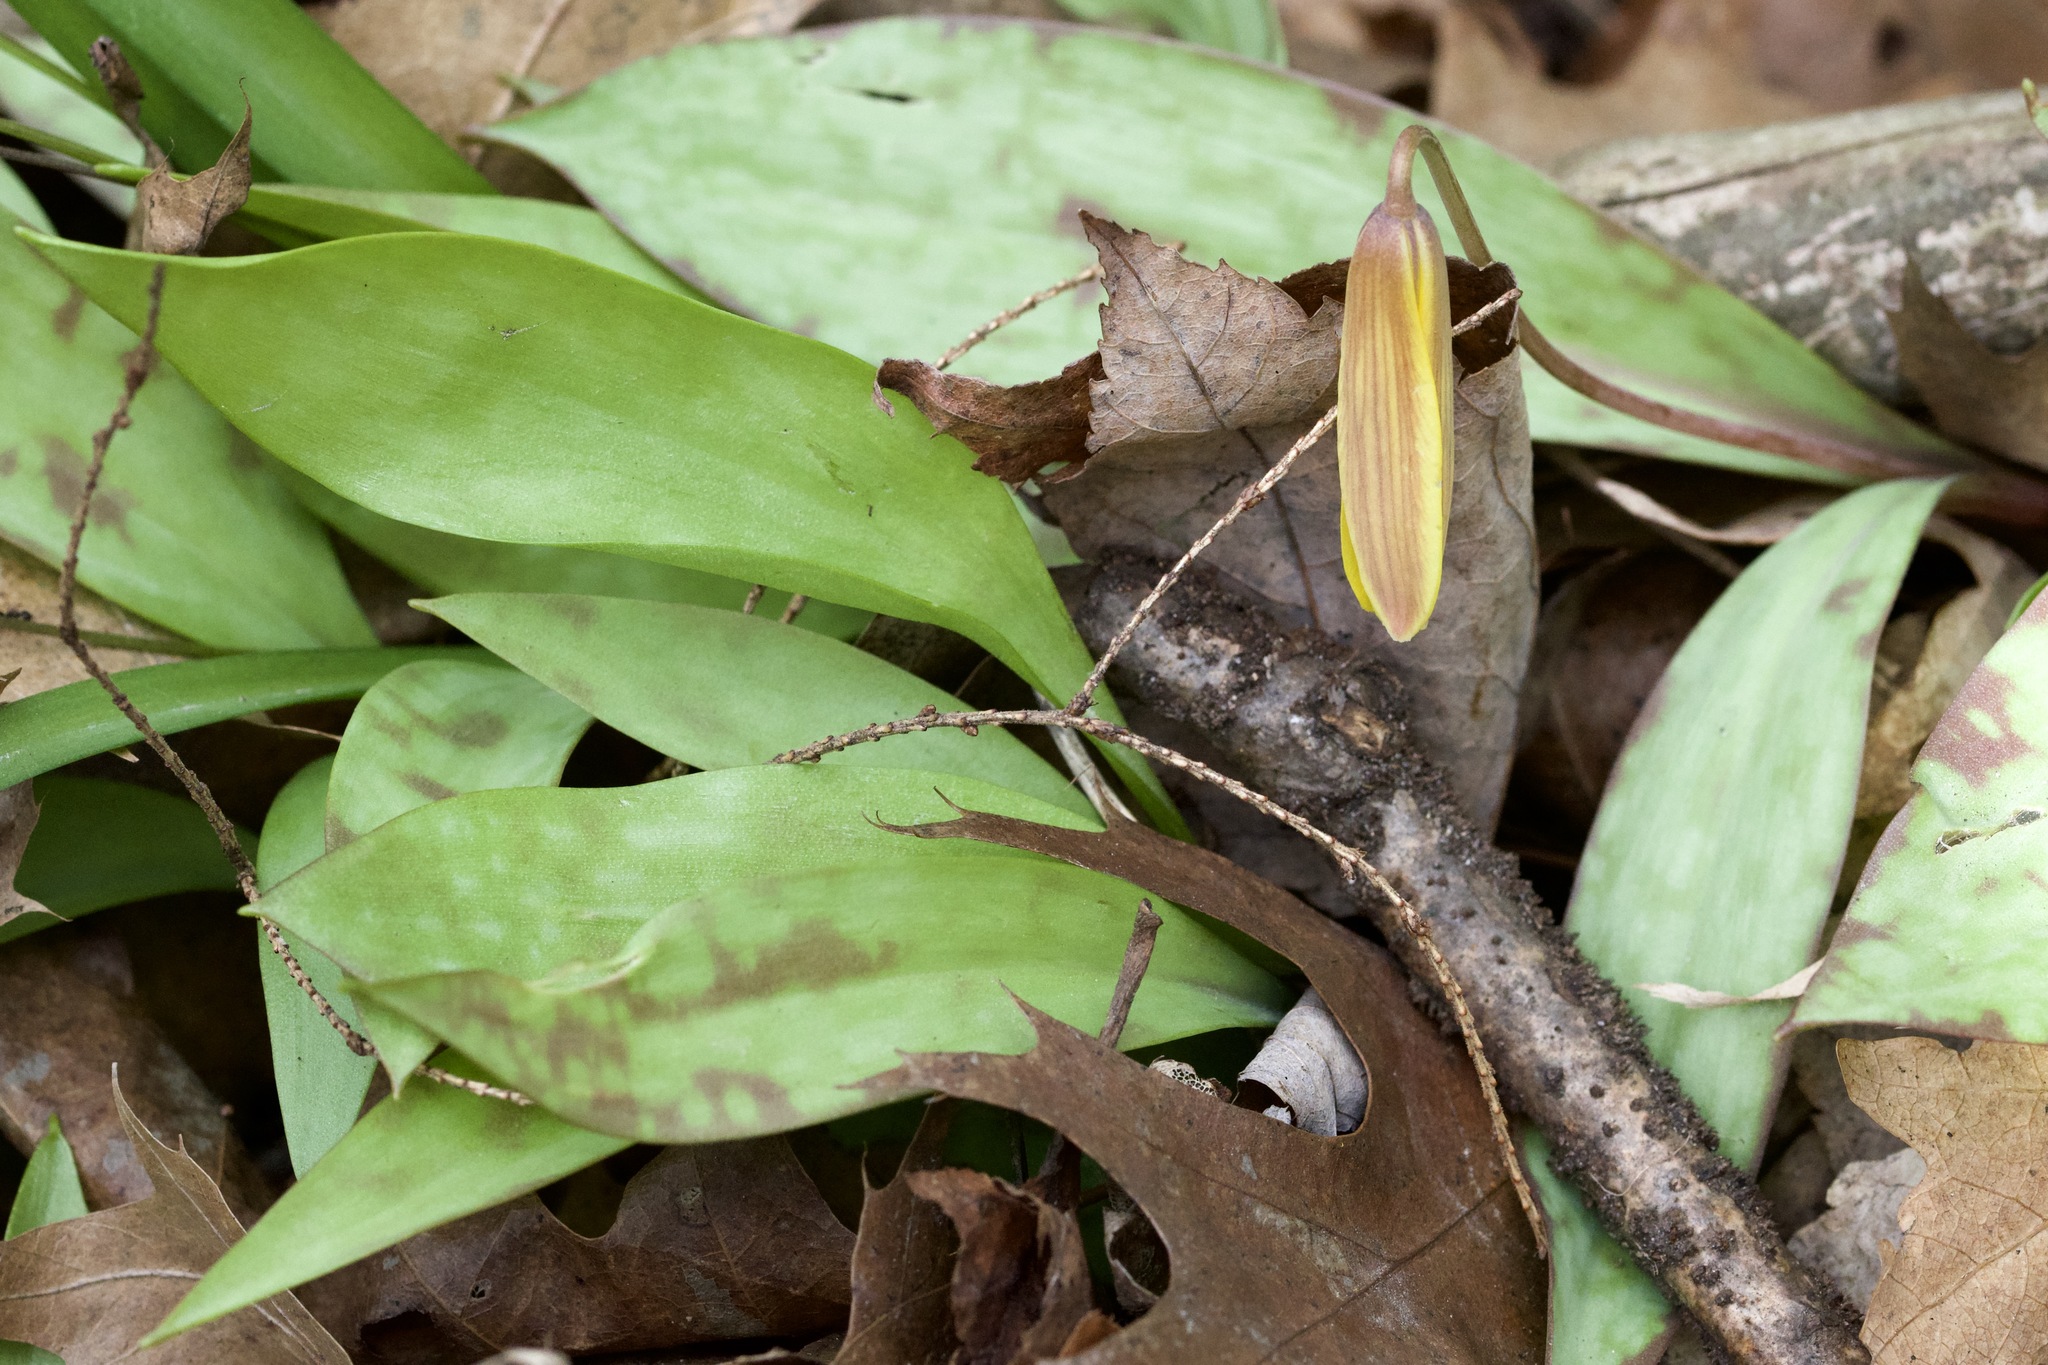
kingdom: Plantae
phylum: Tracheophyta
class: Liliopsida
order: Liliales
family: Liliaceae
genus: Erythronium
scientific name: Erythronium americanum
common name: Yellow adder's-tongue
